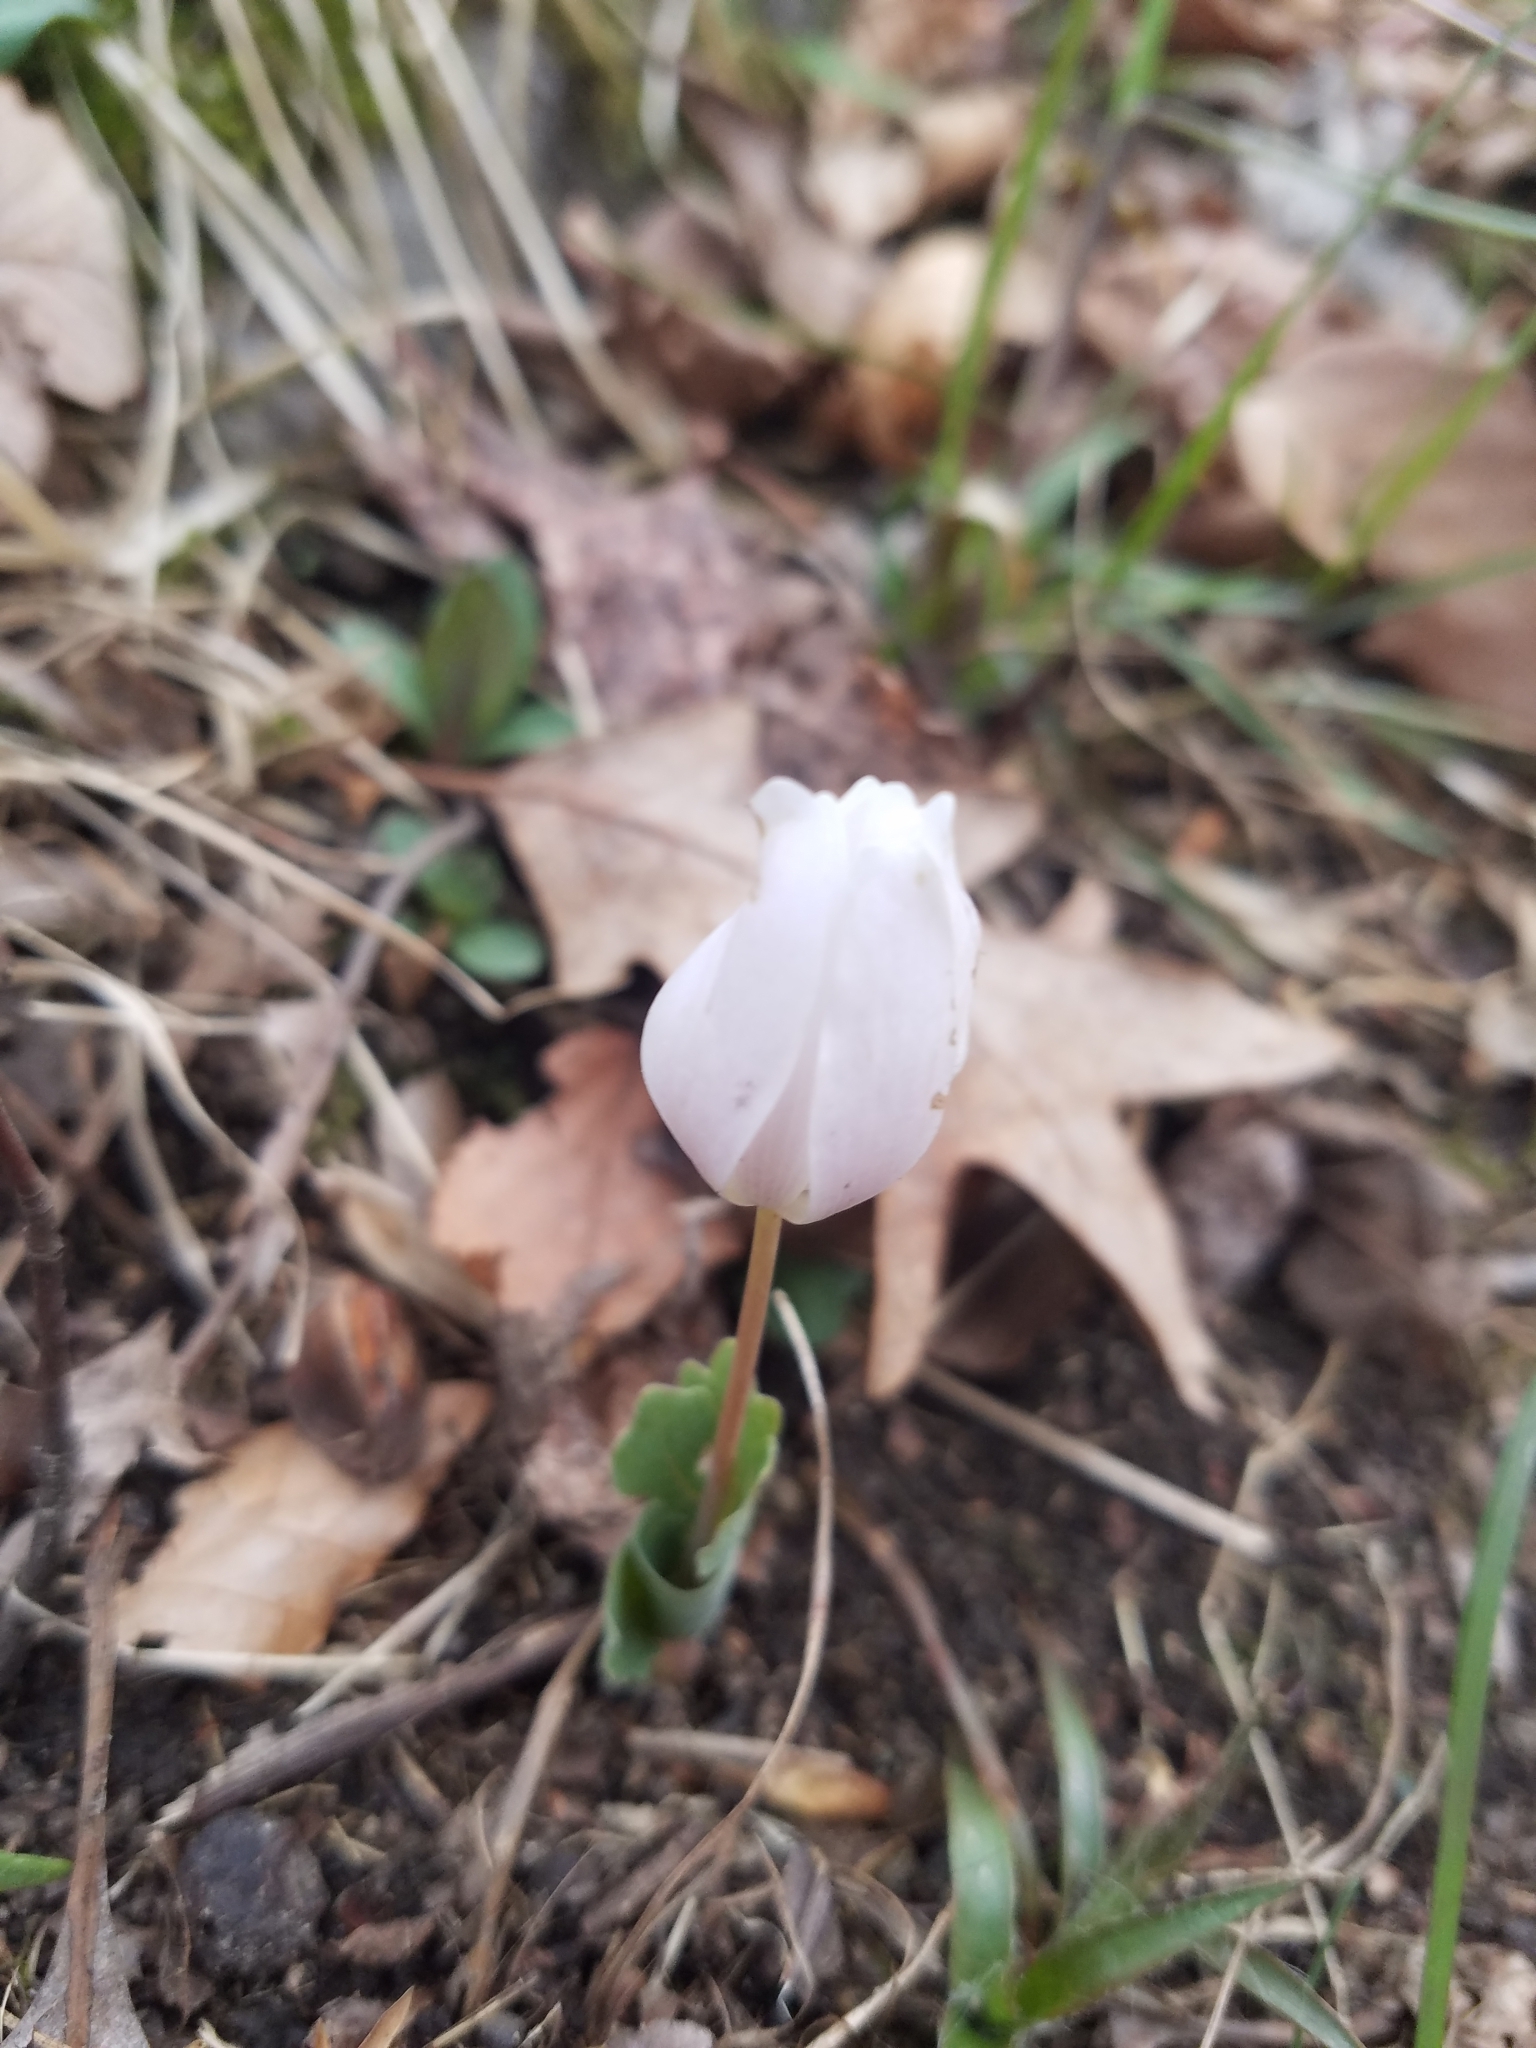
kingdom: Plantae
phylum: Tracheophyta
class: Magnoliopsida
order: Ranunculales
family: Papaveraceae
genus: Sanguinaria
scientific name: Sanguinaria canadensis
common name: Bloodroot
